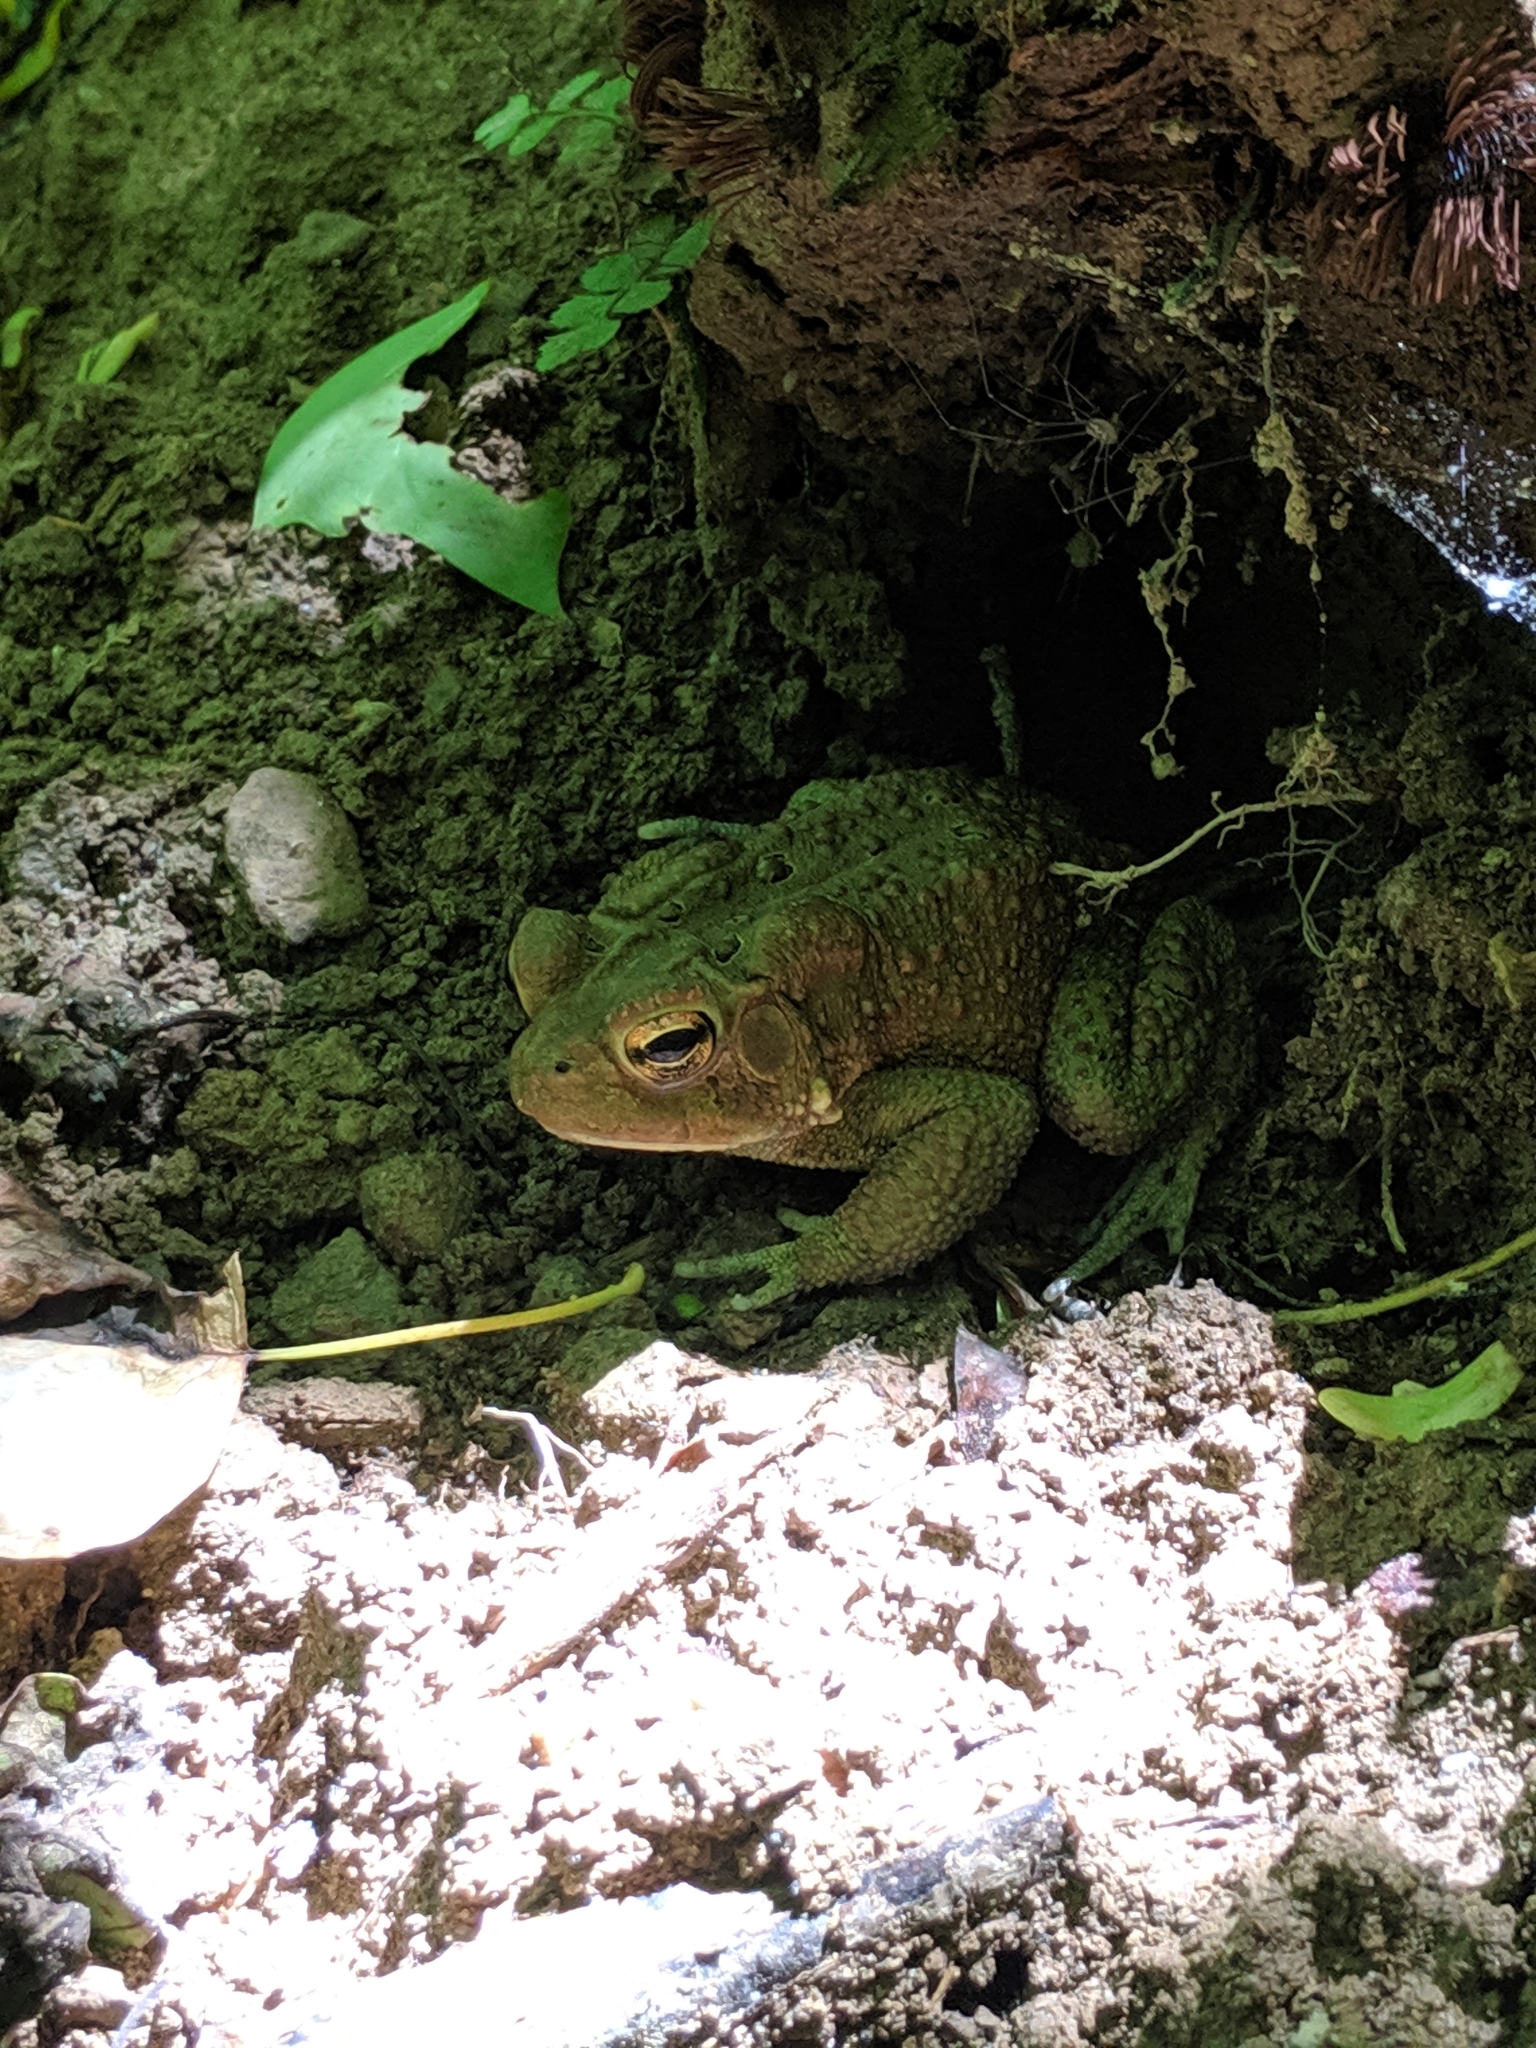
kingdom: Animalia
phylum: Chordata
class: Amphibia
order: Anura
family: Bufonidae
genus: Anaxyrus
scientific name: Anaxyrus americanus
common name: American toad
